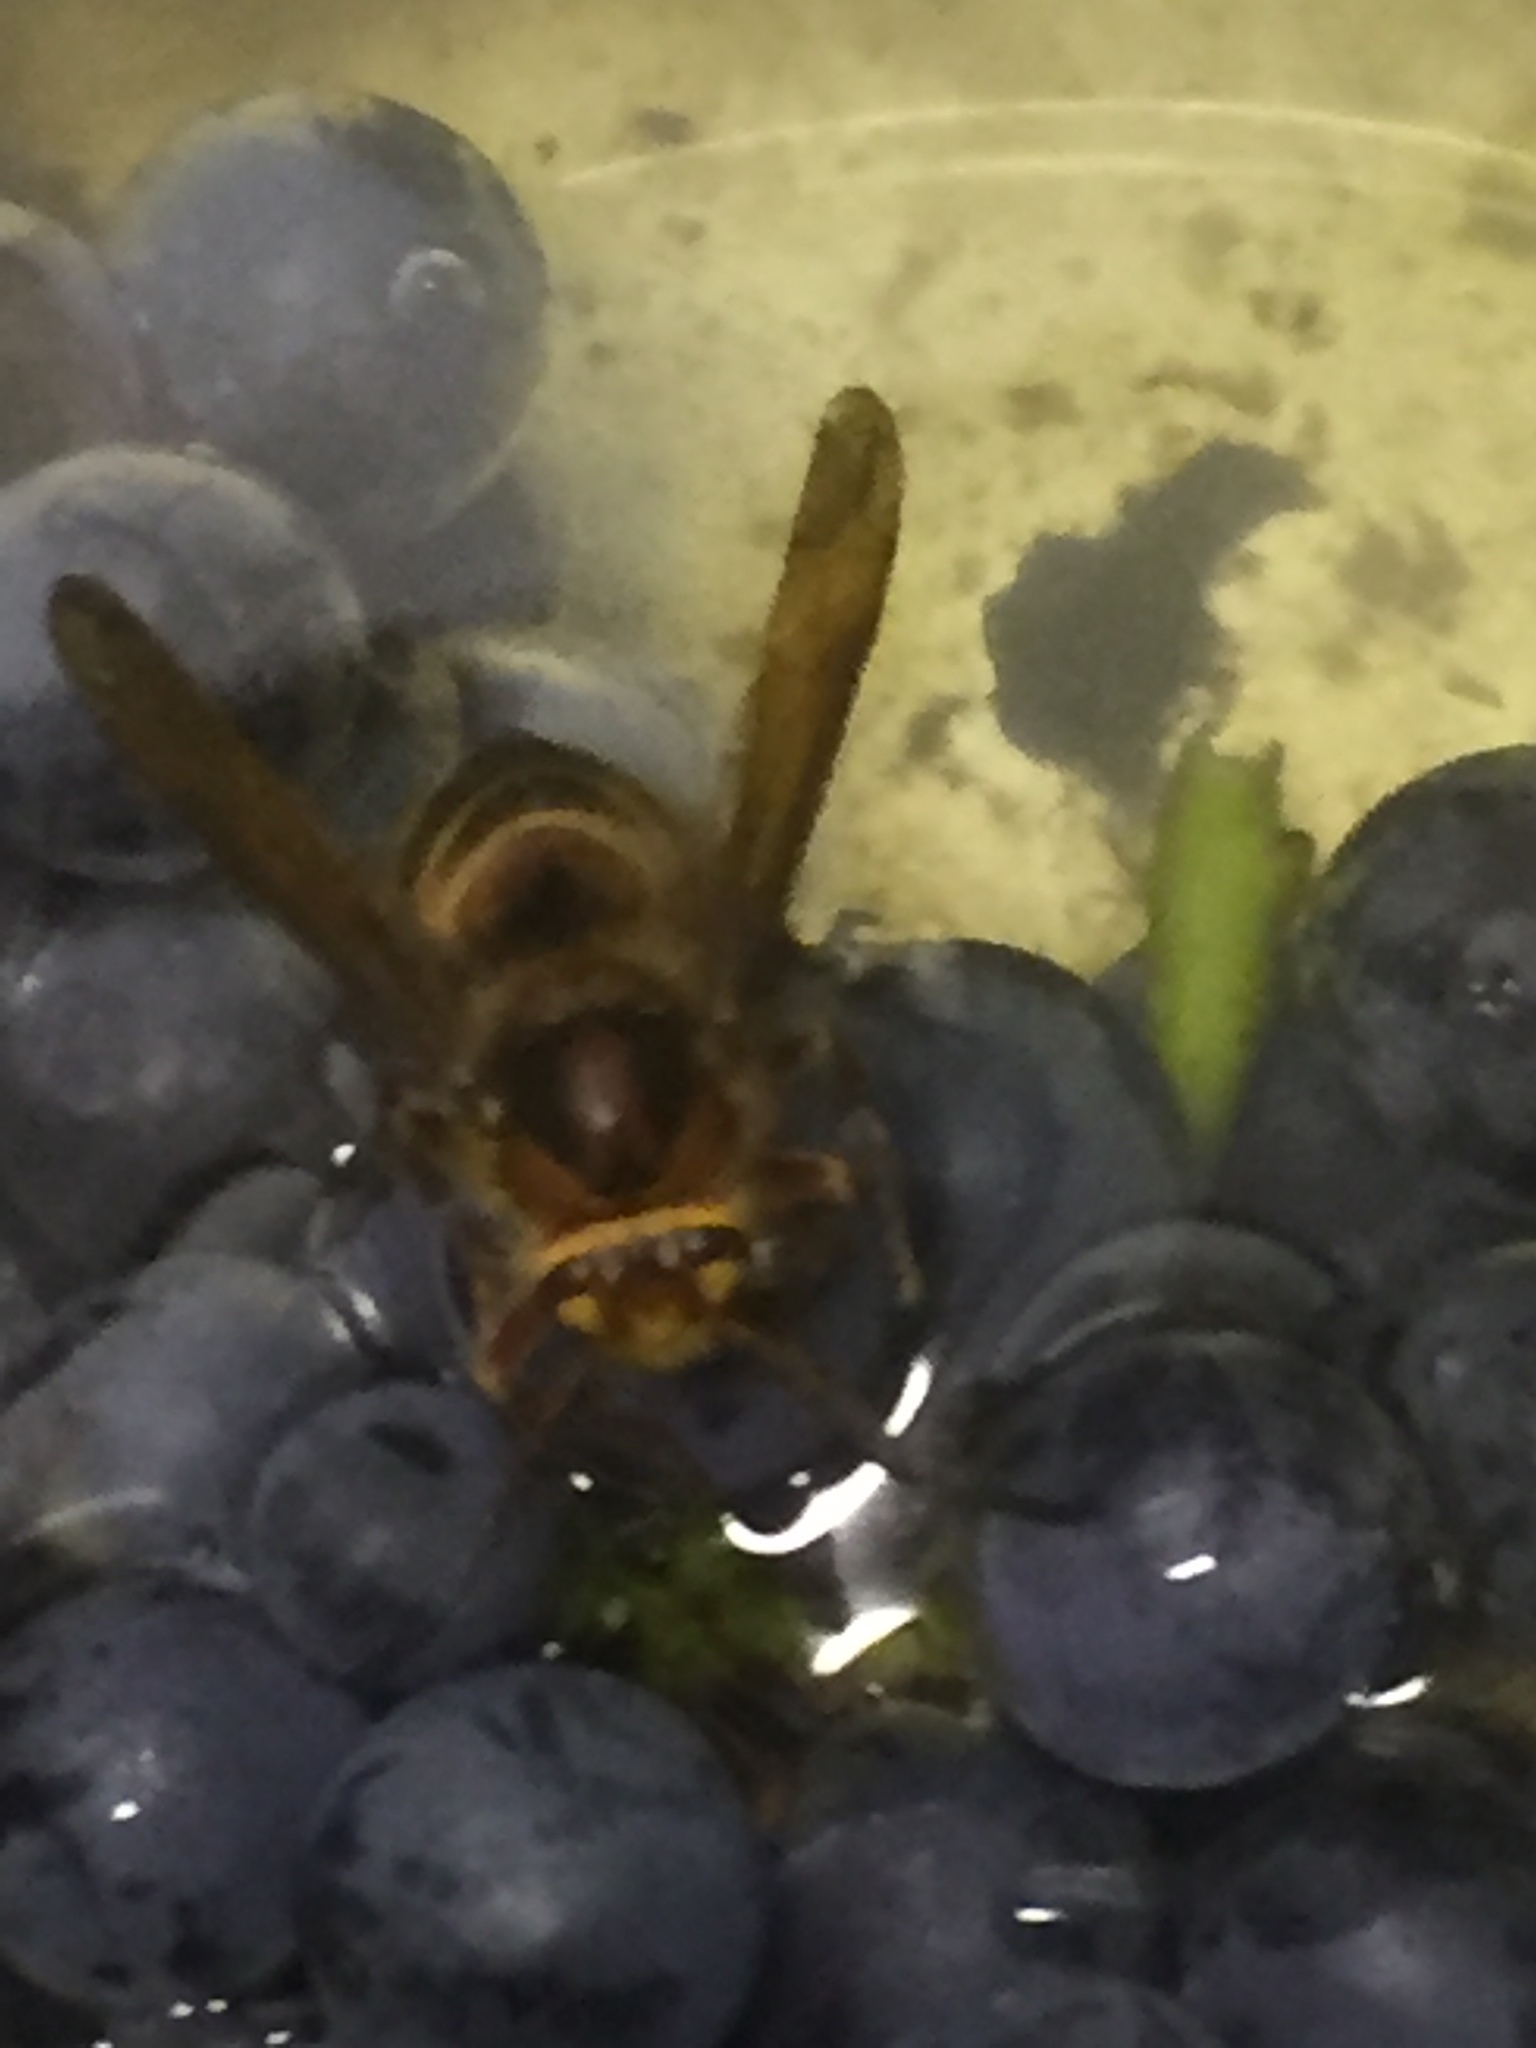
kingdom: Animalia
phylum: Arthropoda
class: Insecta
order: Hymenoptera
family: Vespidae
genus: Vespa
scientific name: Vespa crabro
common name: Hornet
